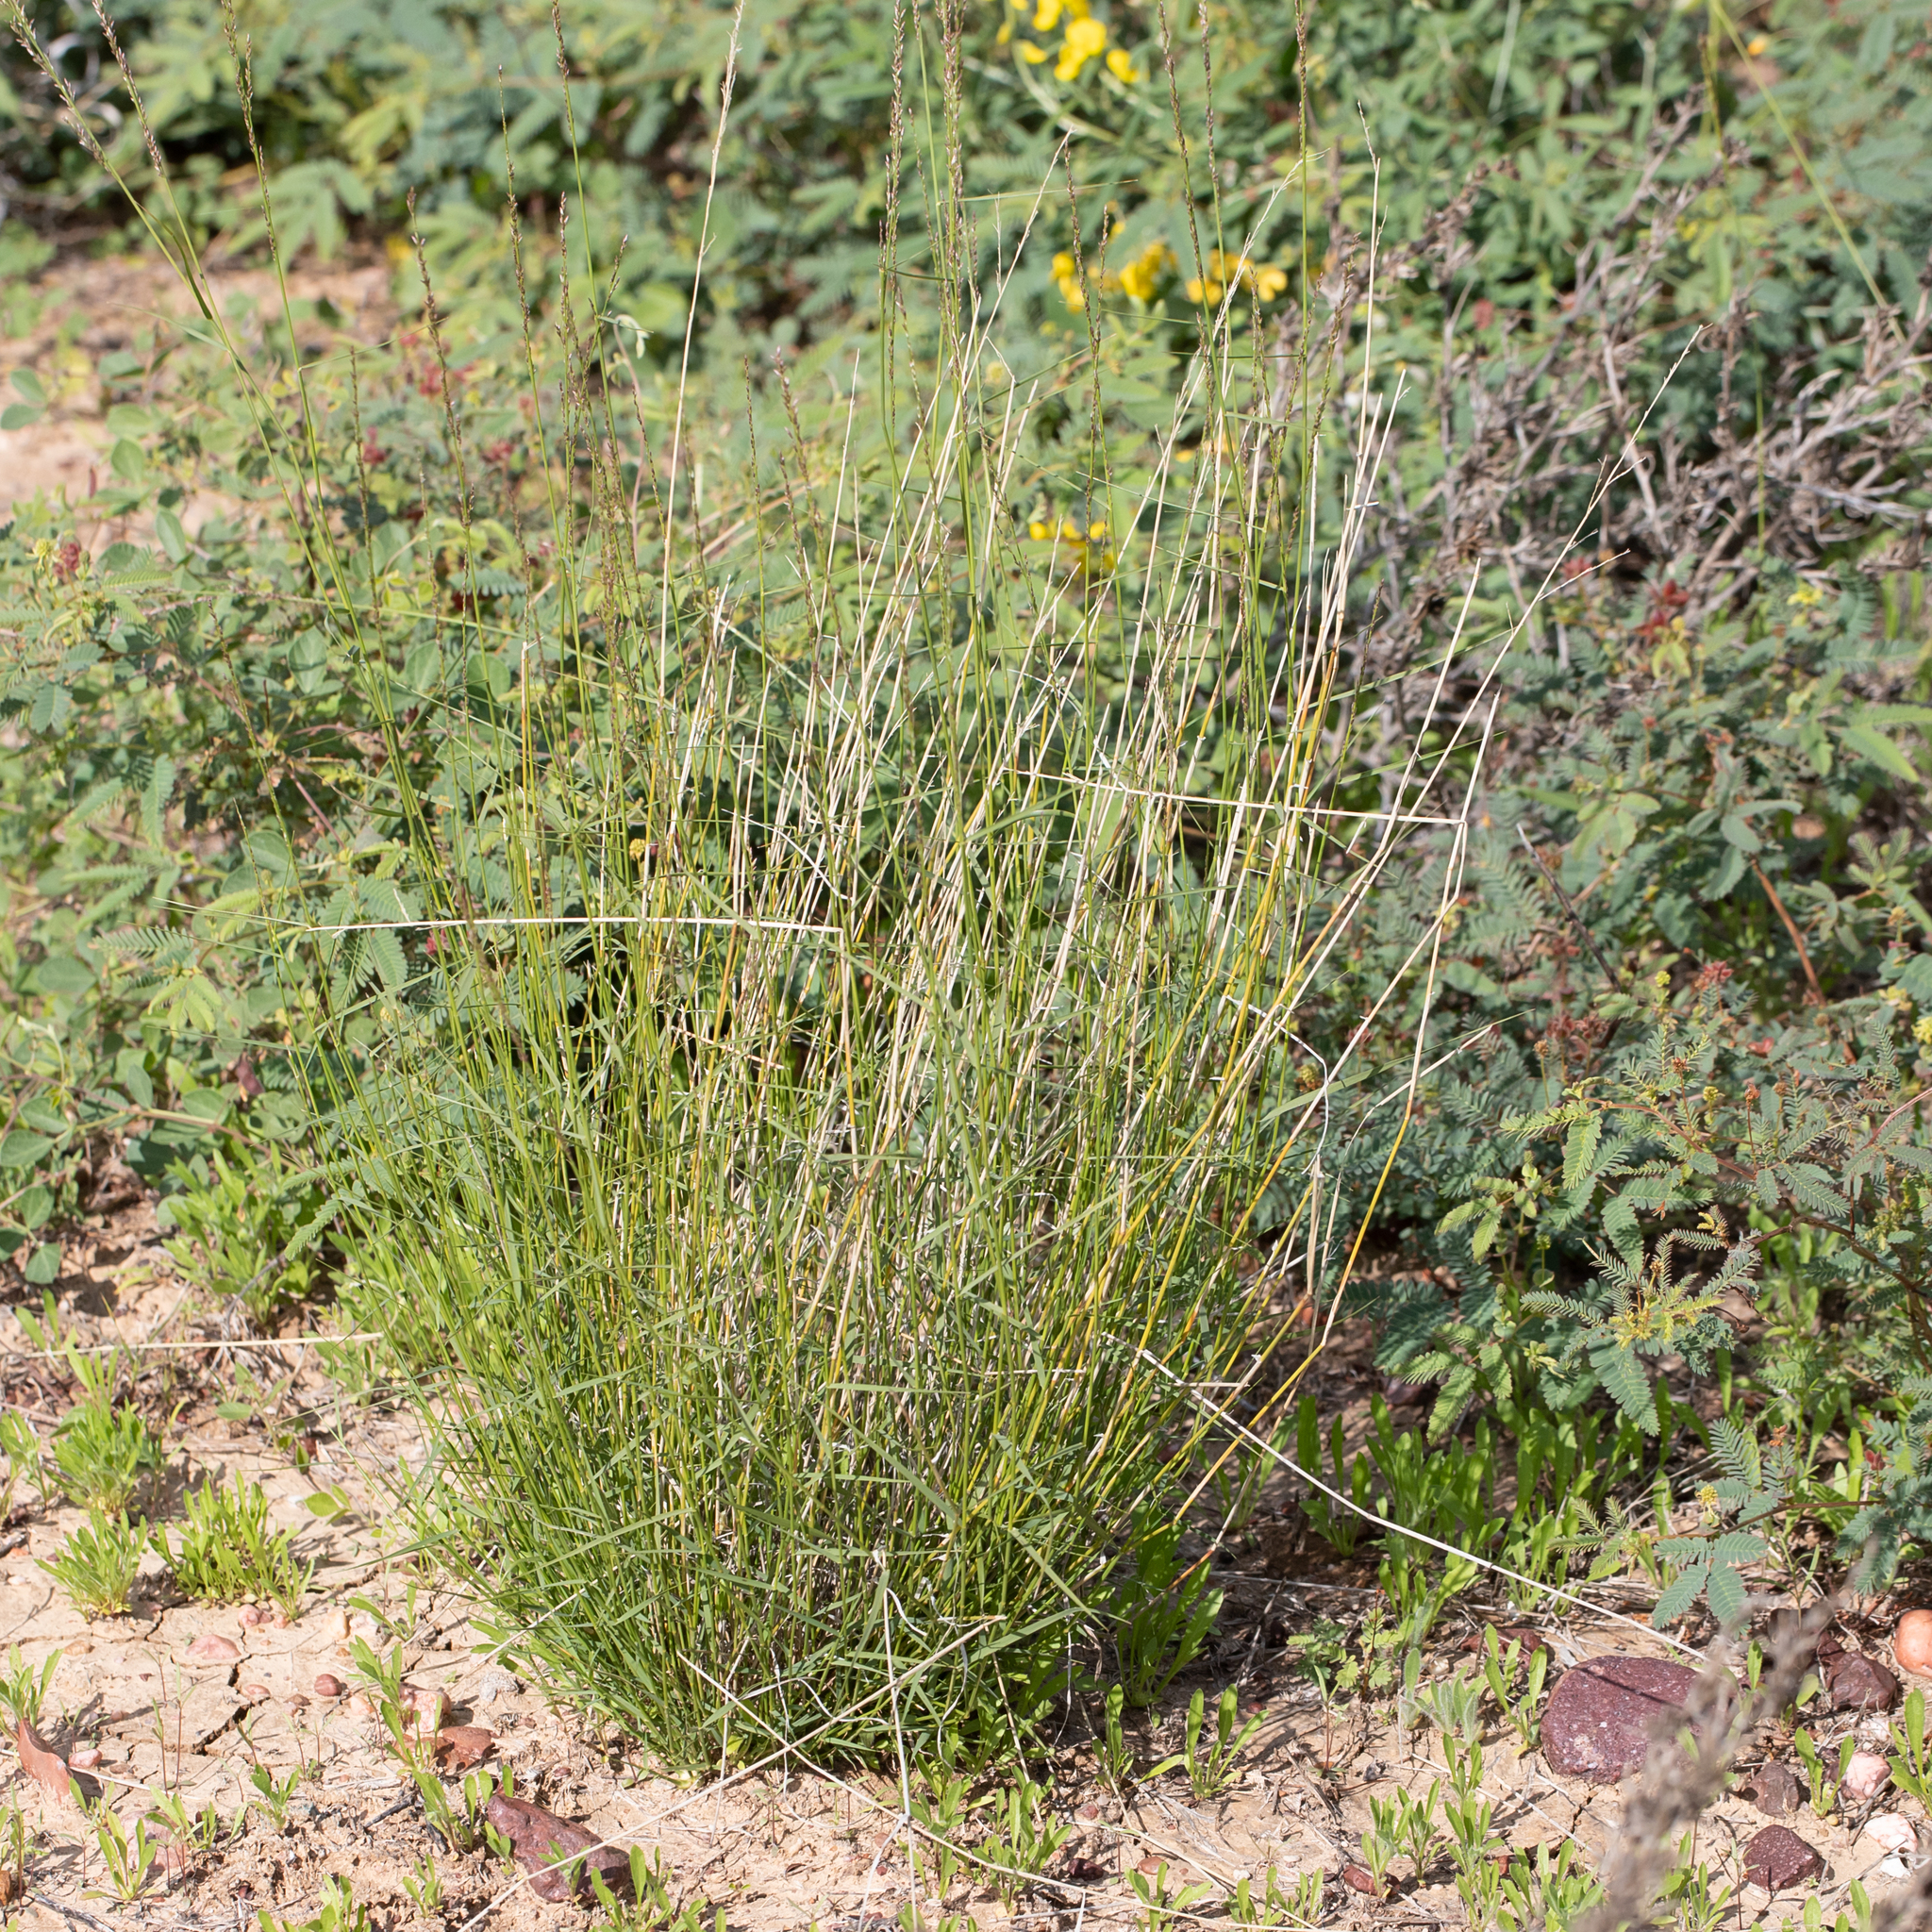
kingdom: Plantae
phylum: Tracheophyta
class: Liliopsida
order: Poales
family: Poaceae
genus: Eragrostis
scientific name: Eragrostis xerophila
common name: Wire wandarrie grass
